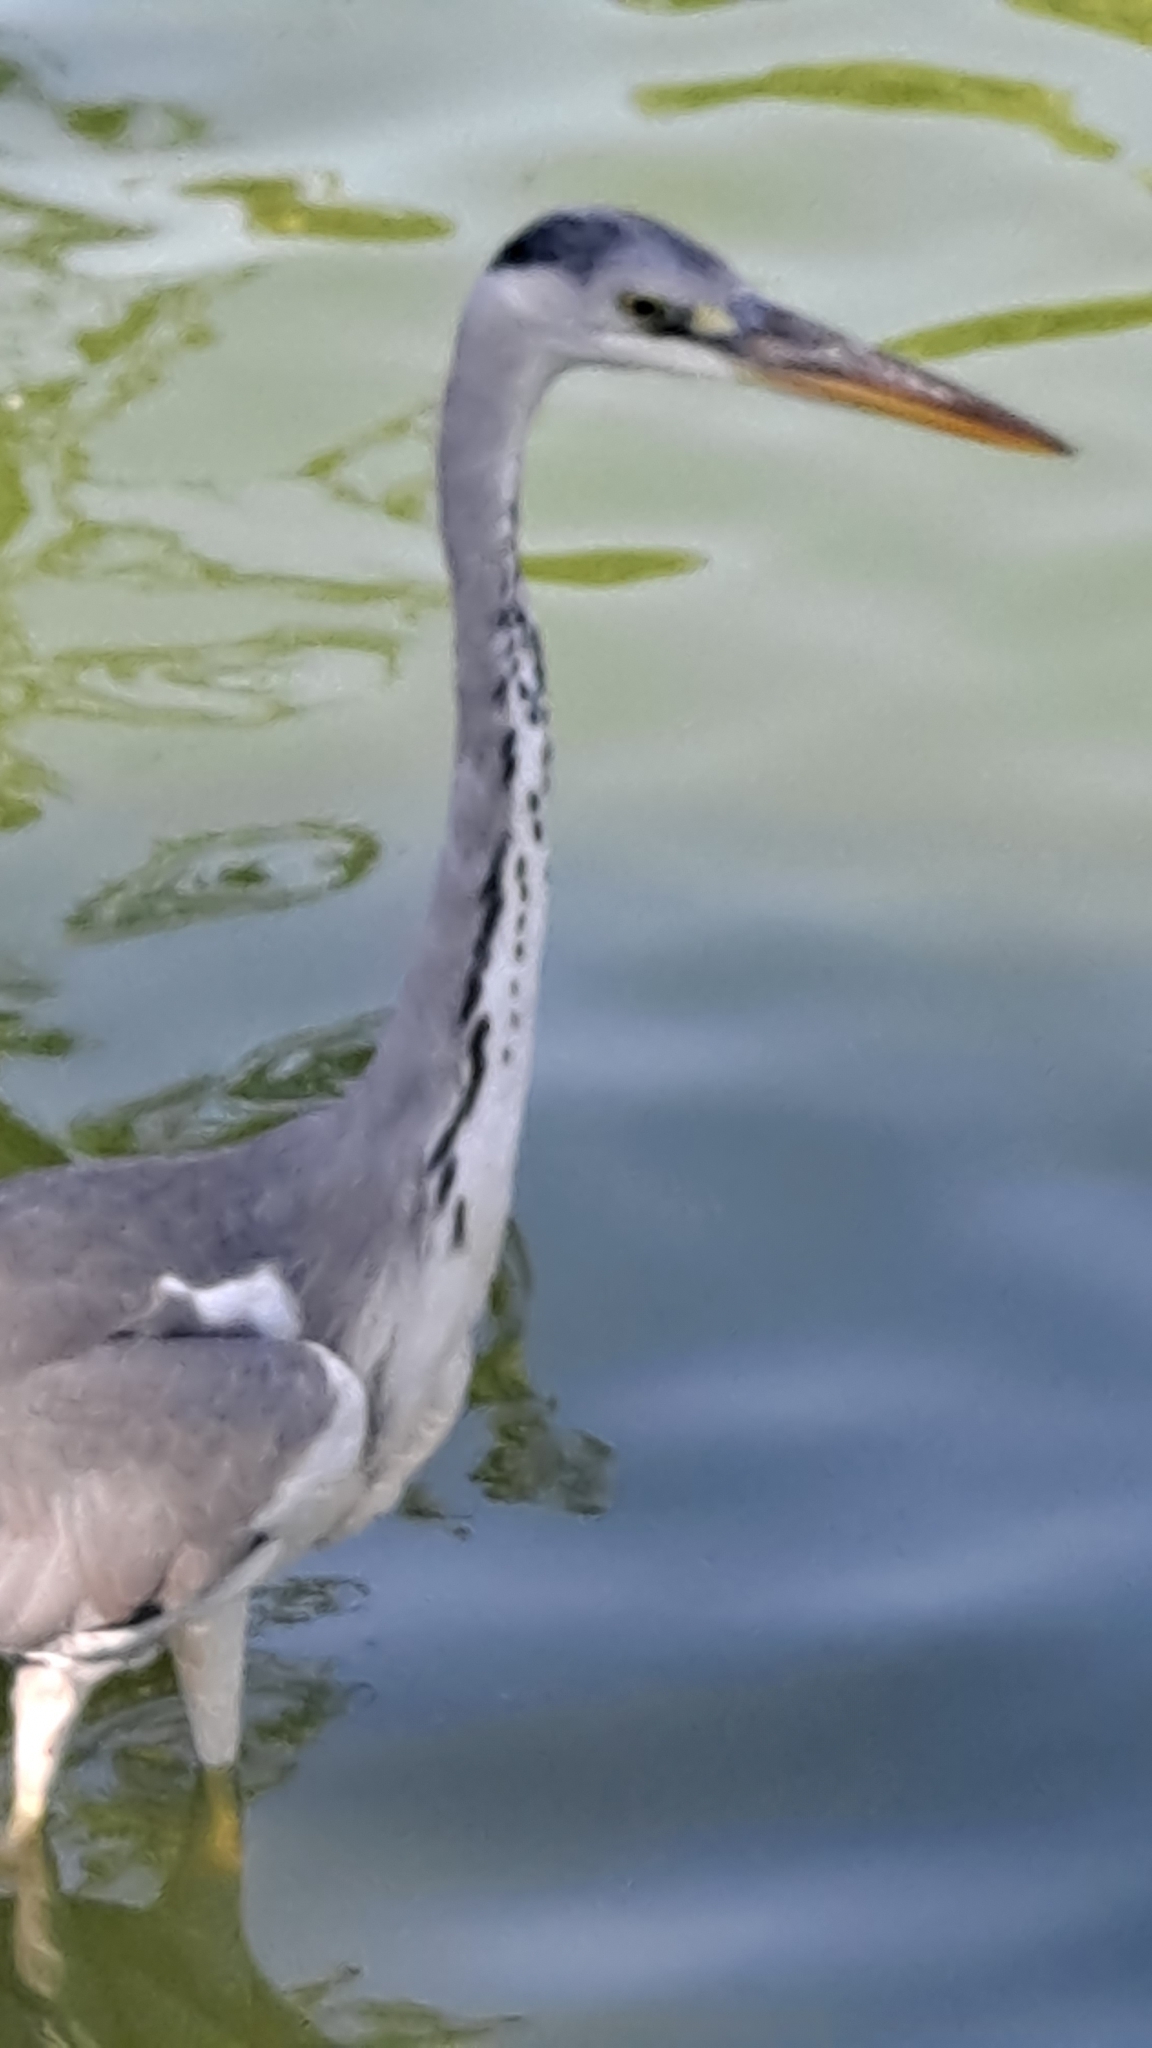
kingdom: Animalia
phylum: Chordata
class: Aves
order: Pelecaniformes
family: Ardeidae
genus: Ardea
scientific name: Ardea cinerea
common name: Grey heron
